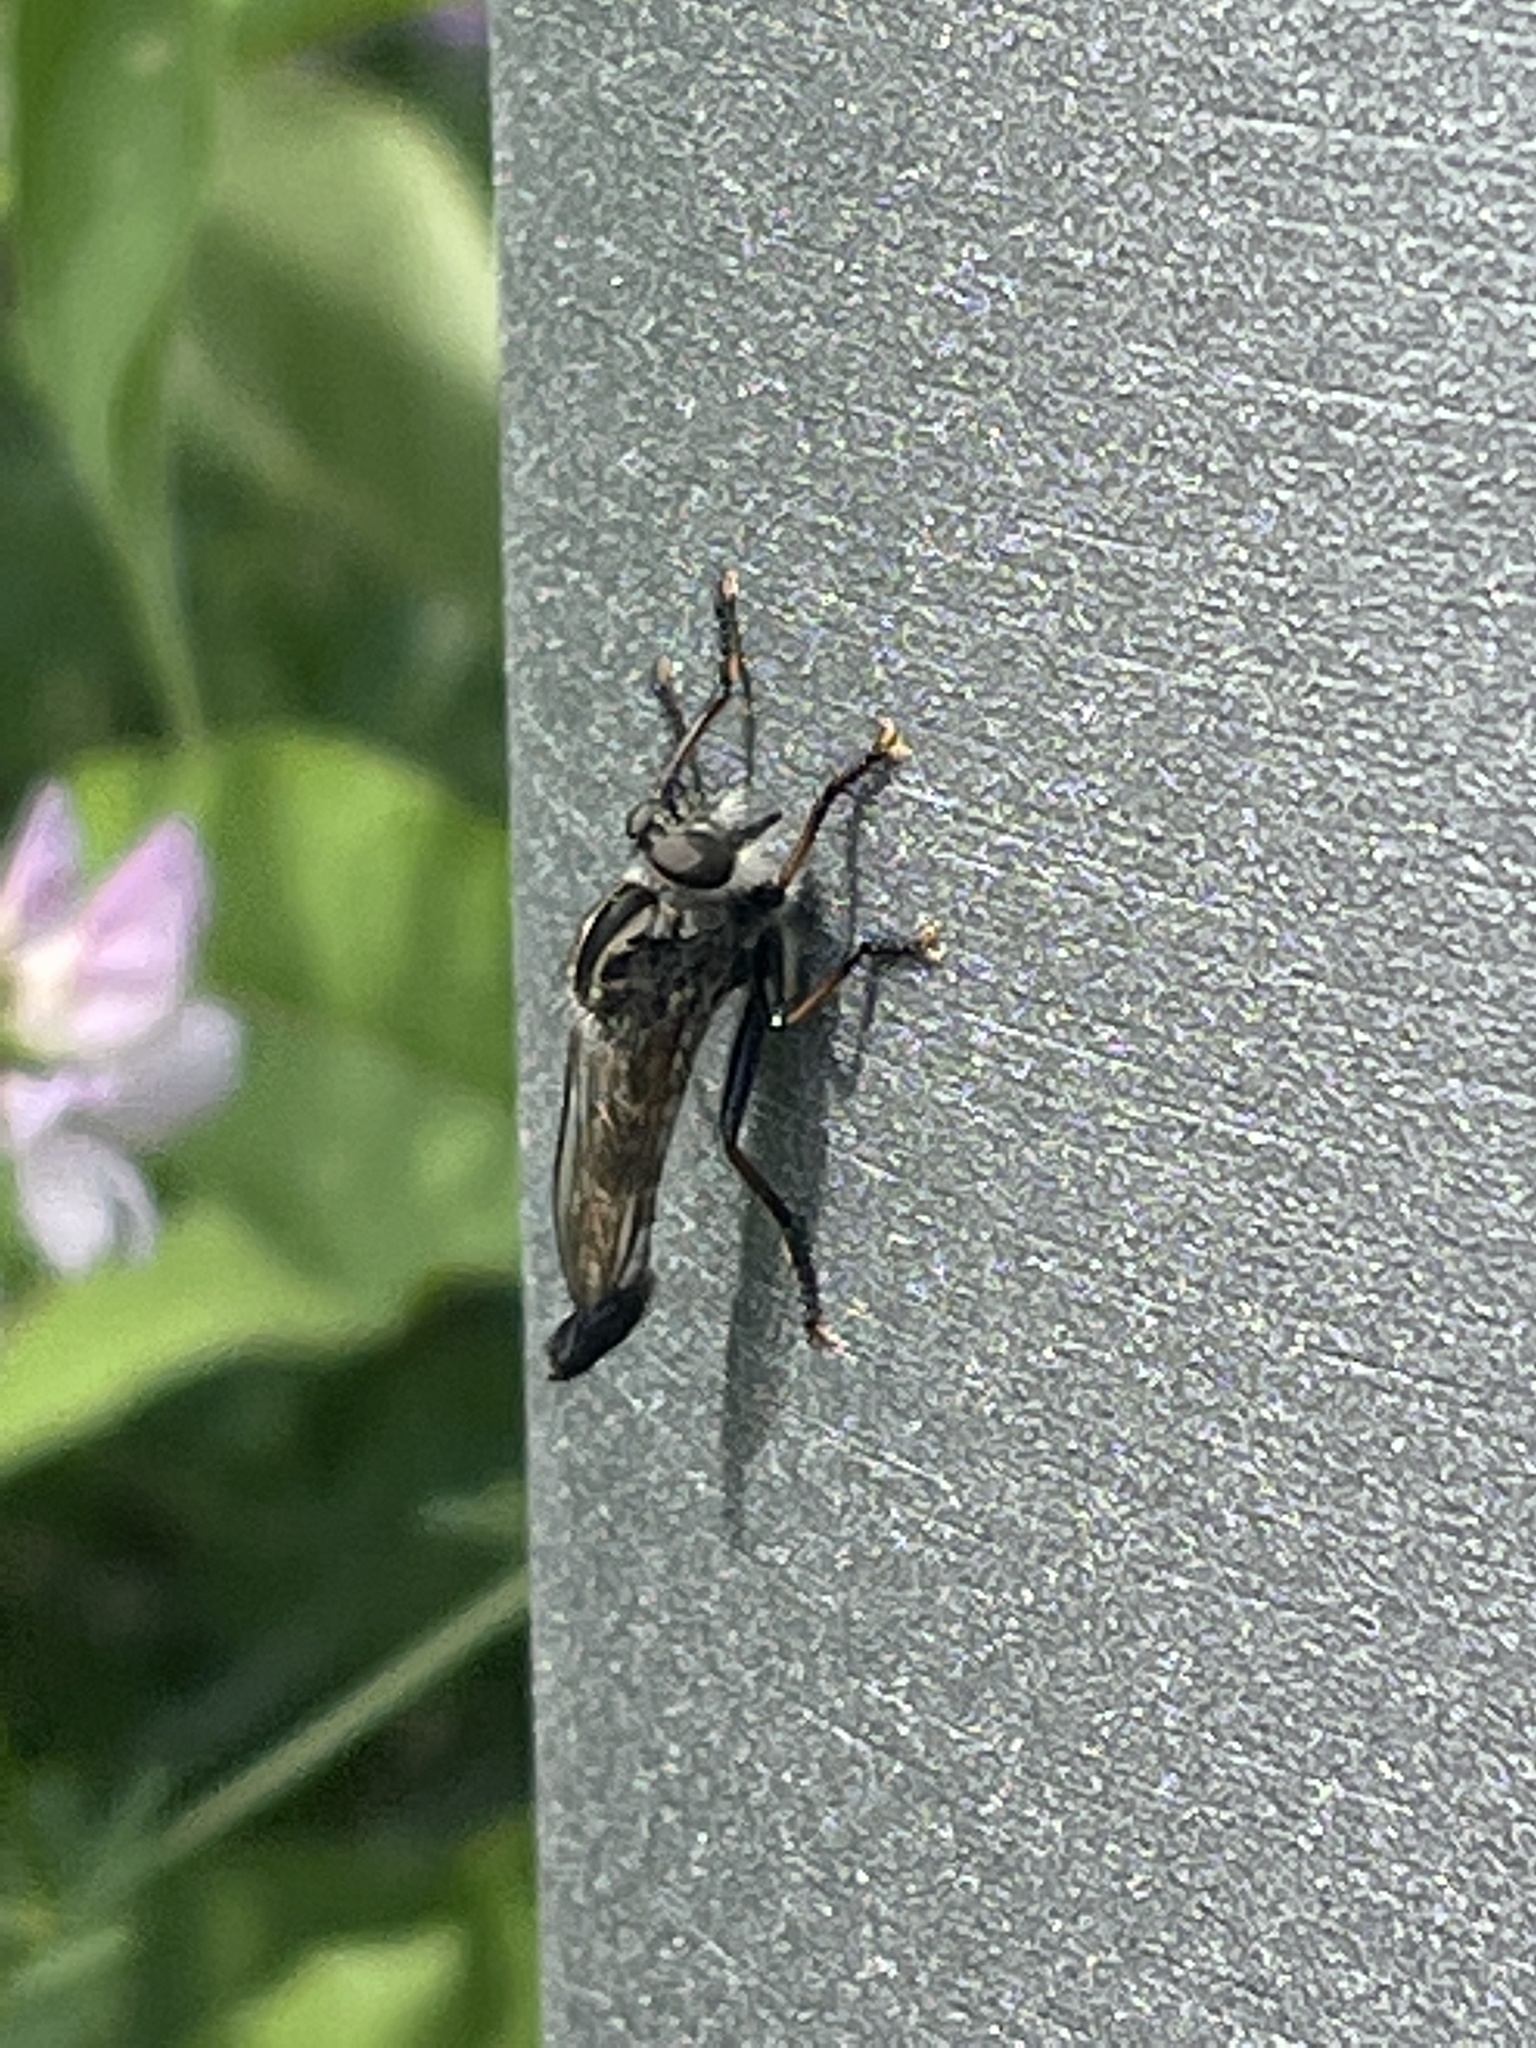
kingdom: Animalia
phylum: Arthropoda
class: Insecta
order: Diptera
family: Asilidae
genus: Efferia
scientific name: Efferia aestuans
